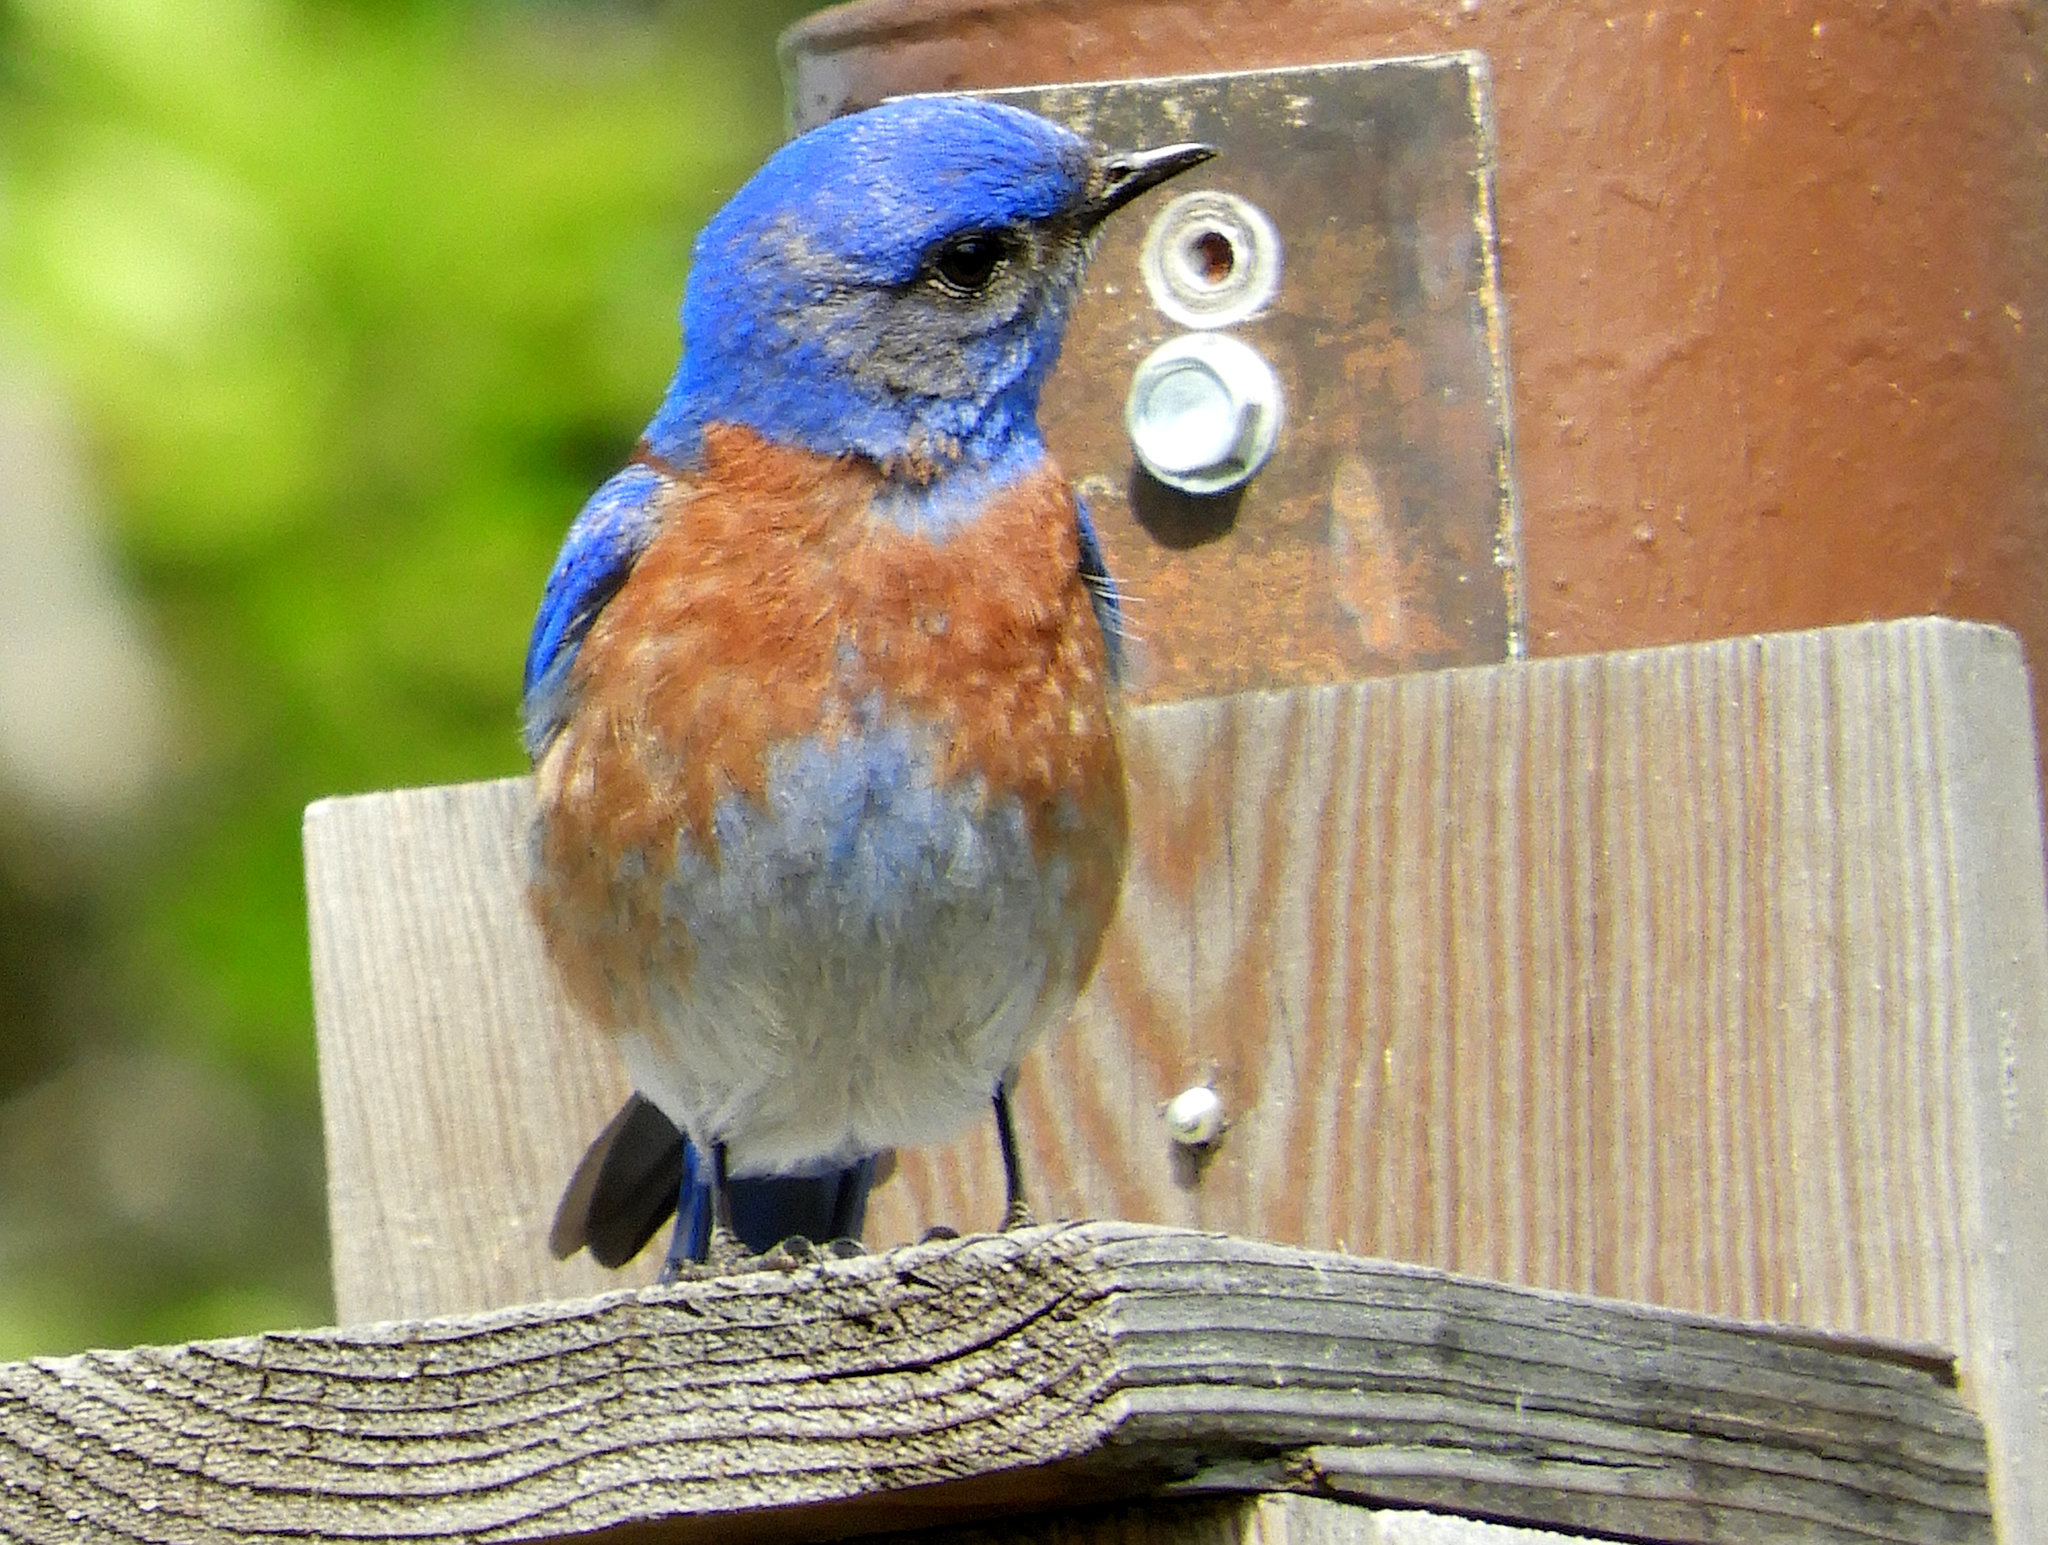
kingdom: Animalia
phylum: Chordata
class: Aves
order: Passeriformes
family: Turdidae
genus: Sialia
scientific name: Sialia mexicana
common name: Western bluebird
